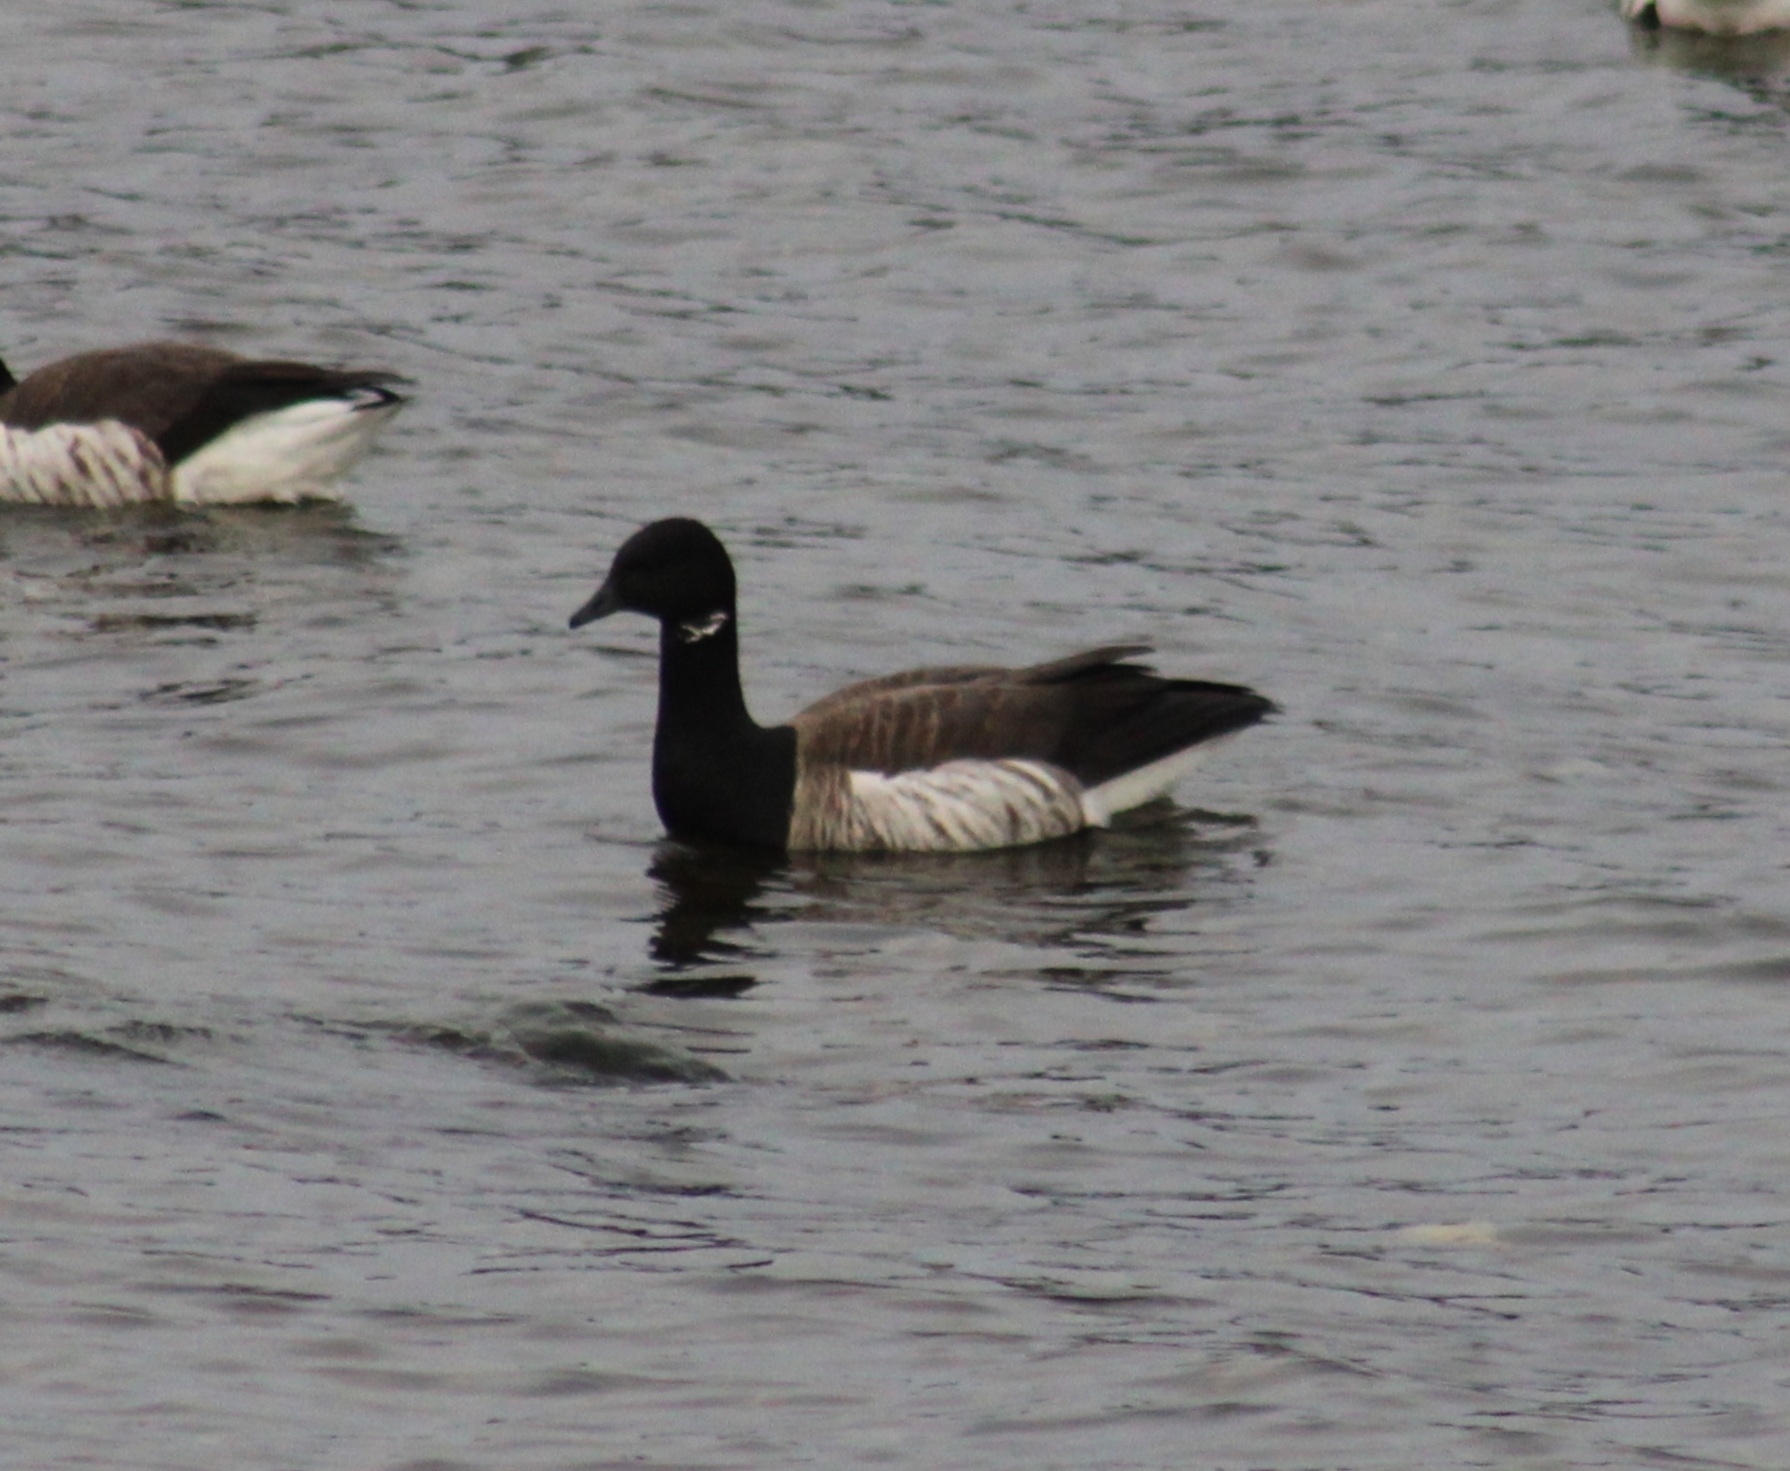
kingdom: Animalia
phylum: Chordata
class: Aves
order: Anseriformes
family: Anatidae
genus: Branta
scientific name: Branta bernicla
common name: Brant goose
